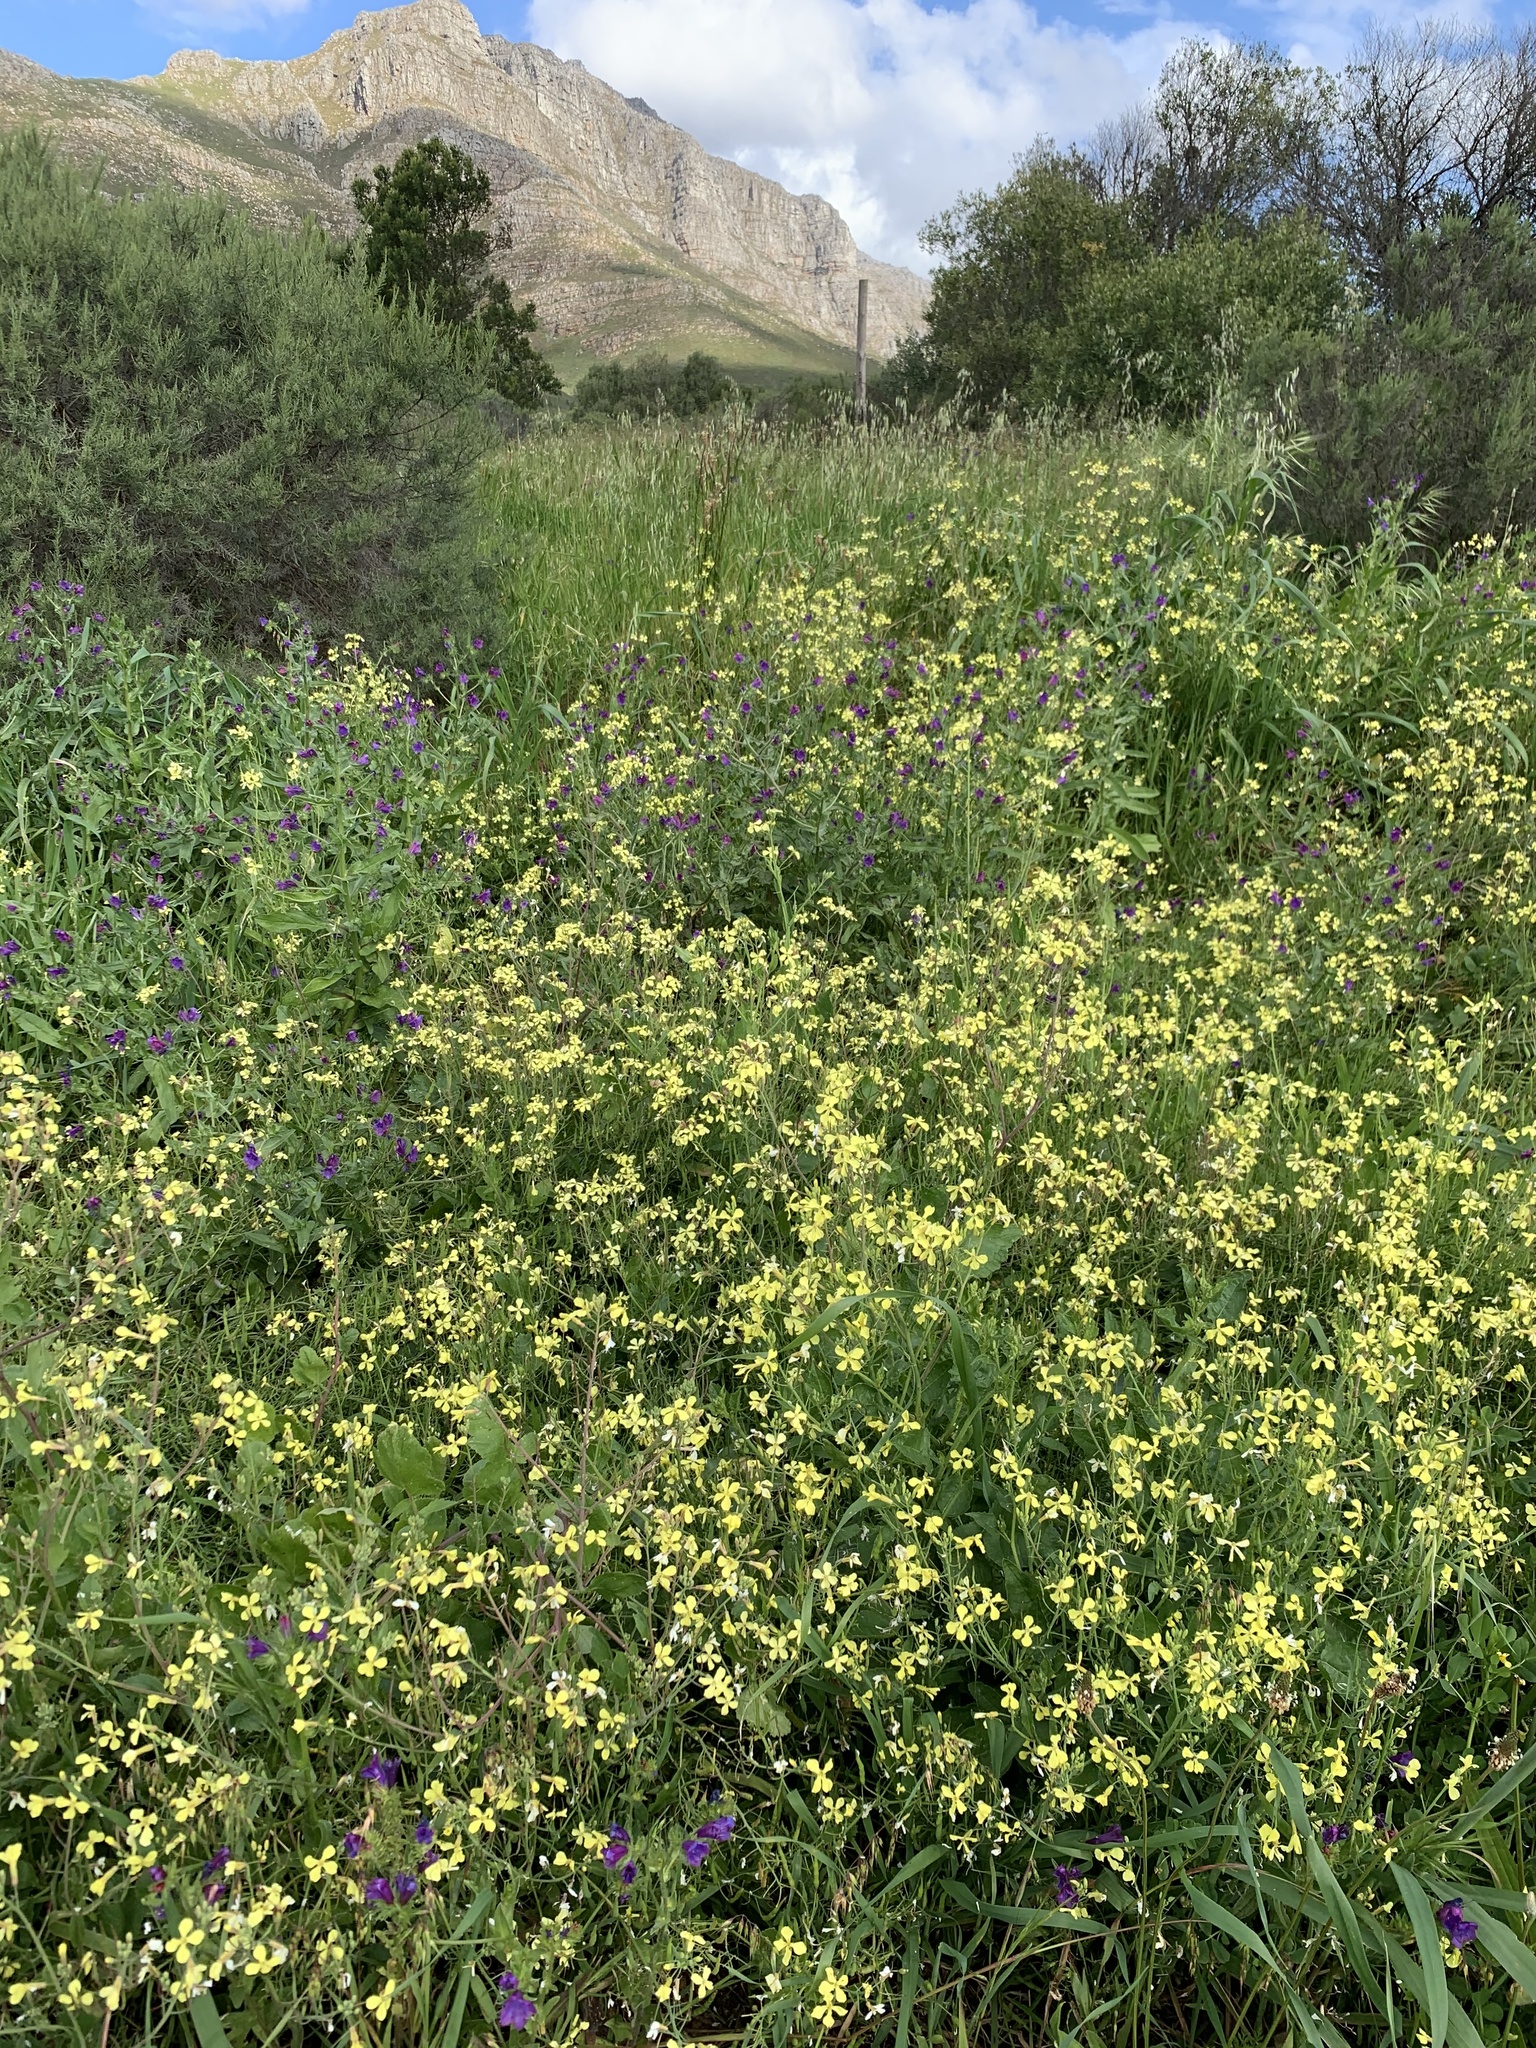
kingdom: Plantae
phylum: Tracheophyta
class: Magnoliopsida
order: Brassicales
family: Brassicaceae
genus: Raphanus
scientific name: Raphanus raphanistrum
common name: Wild radish
